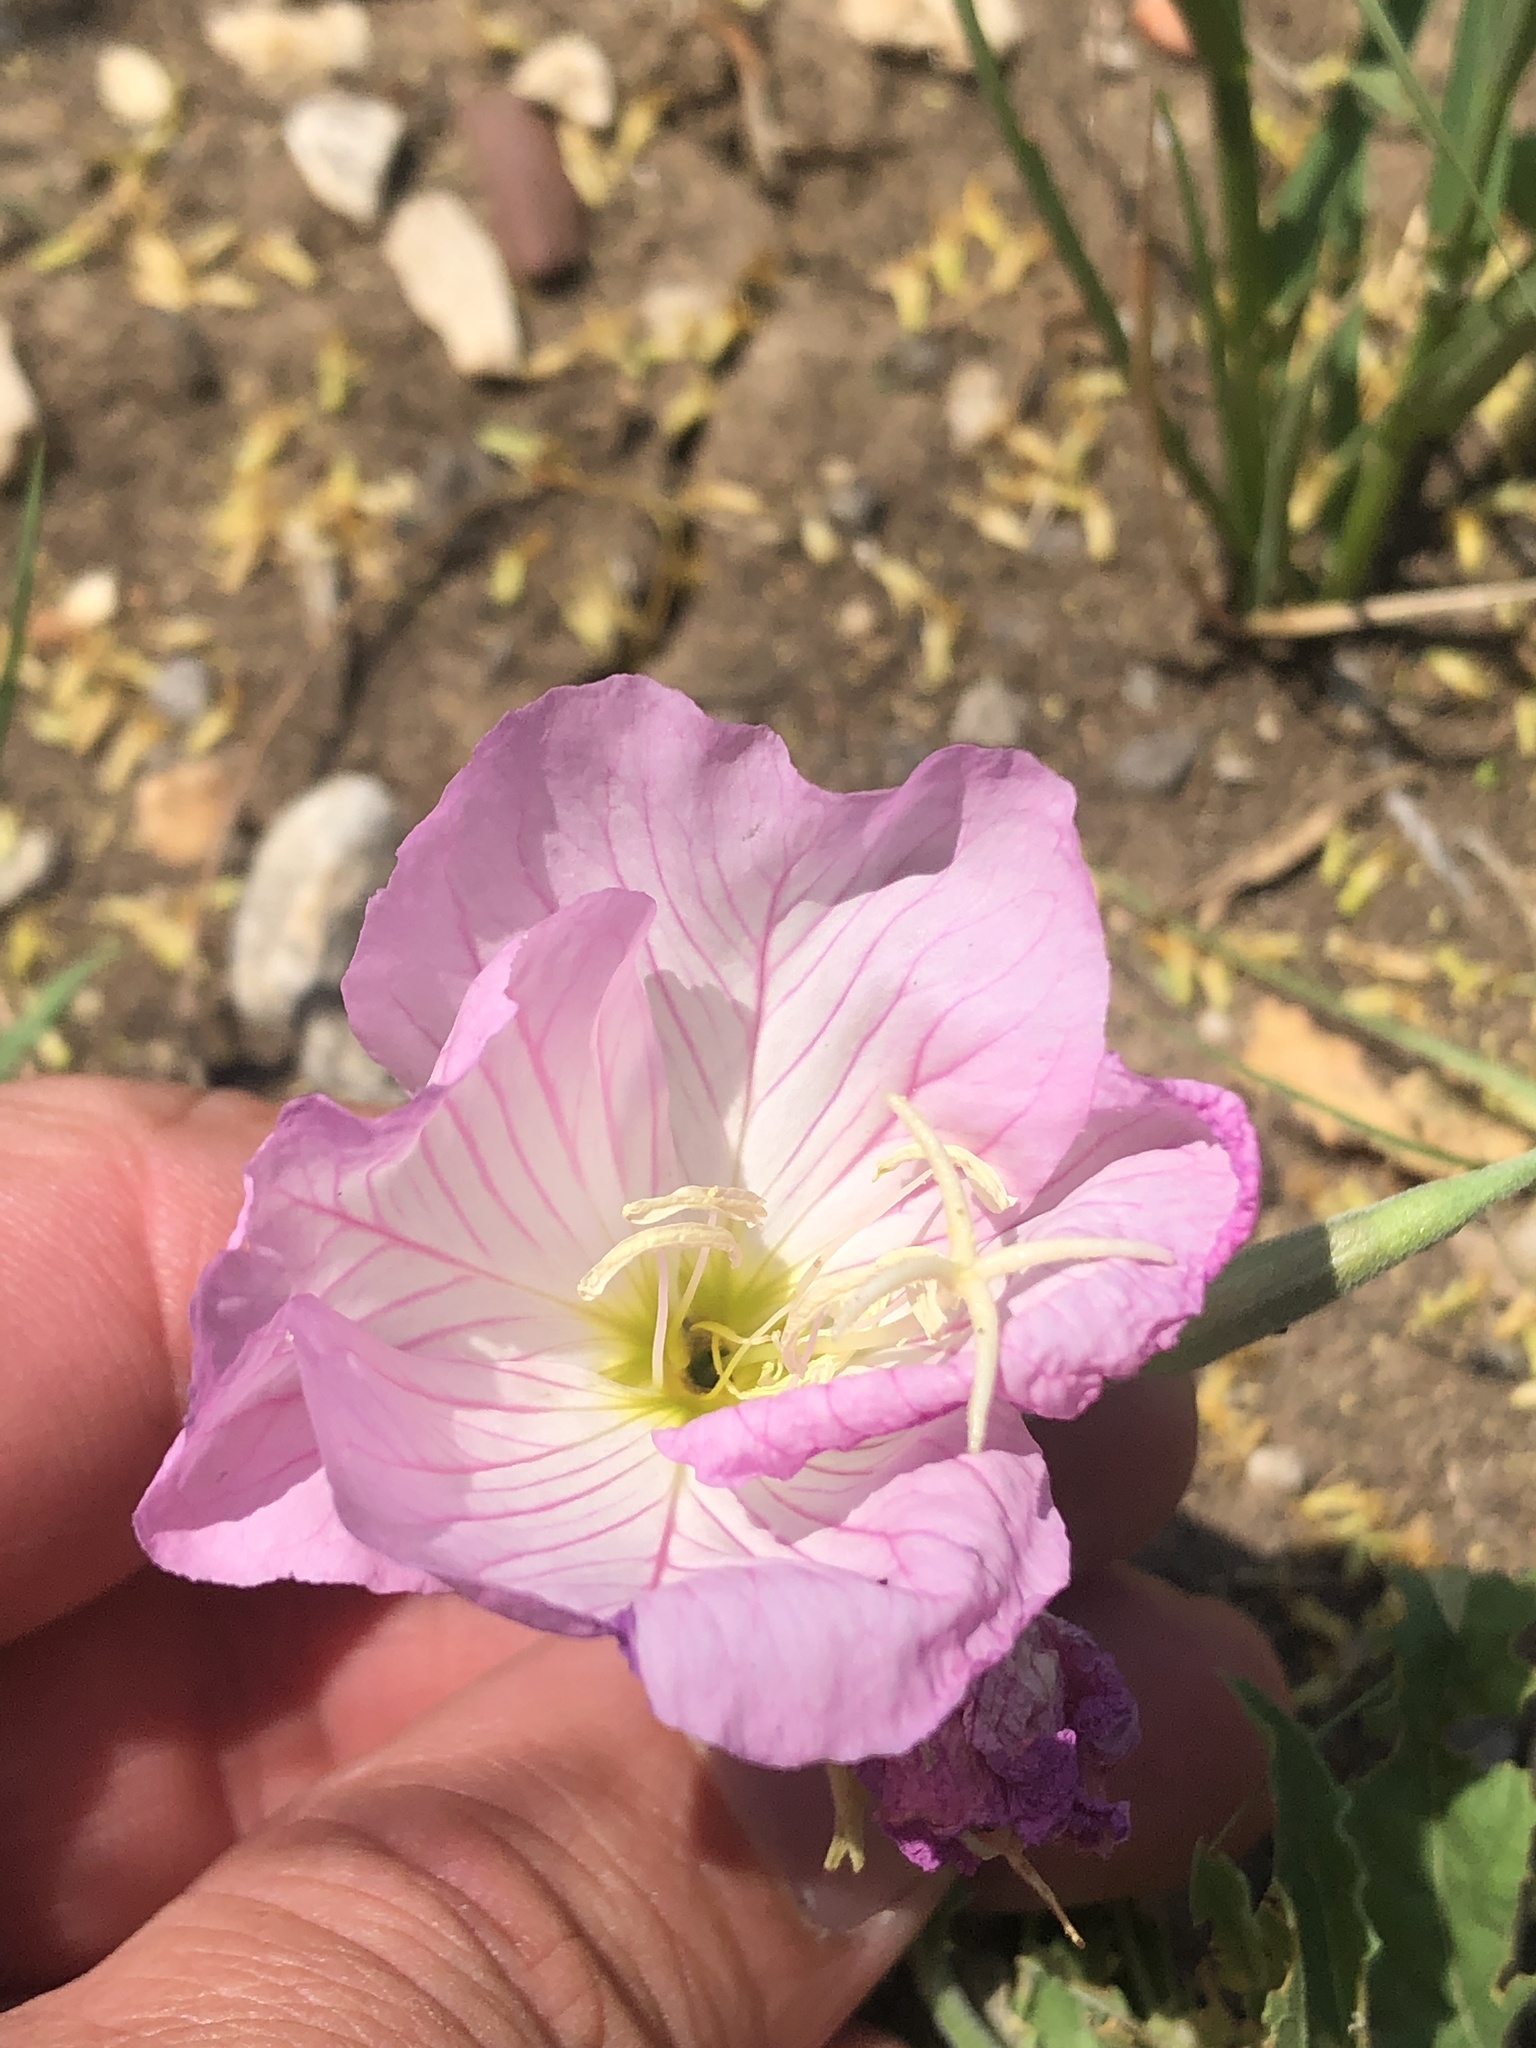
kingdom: Plantae
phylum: Tracheophyta
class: Magnoliopsida
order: Myrtales
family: Onagraceae
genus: Oenothera
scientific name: Oenothera speciosa
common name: White evening-primrose
